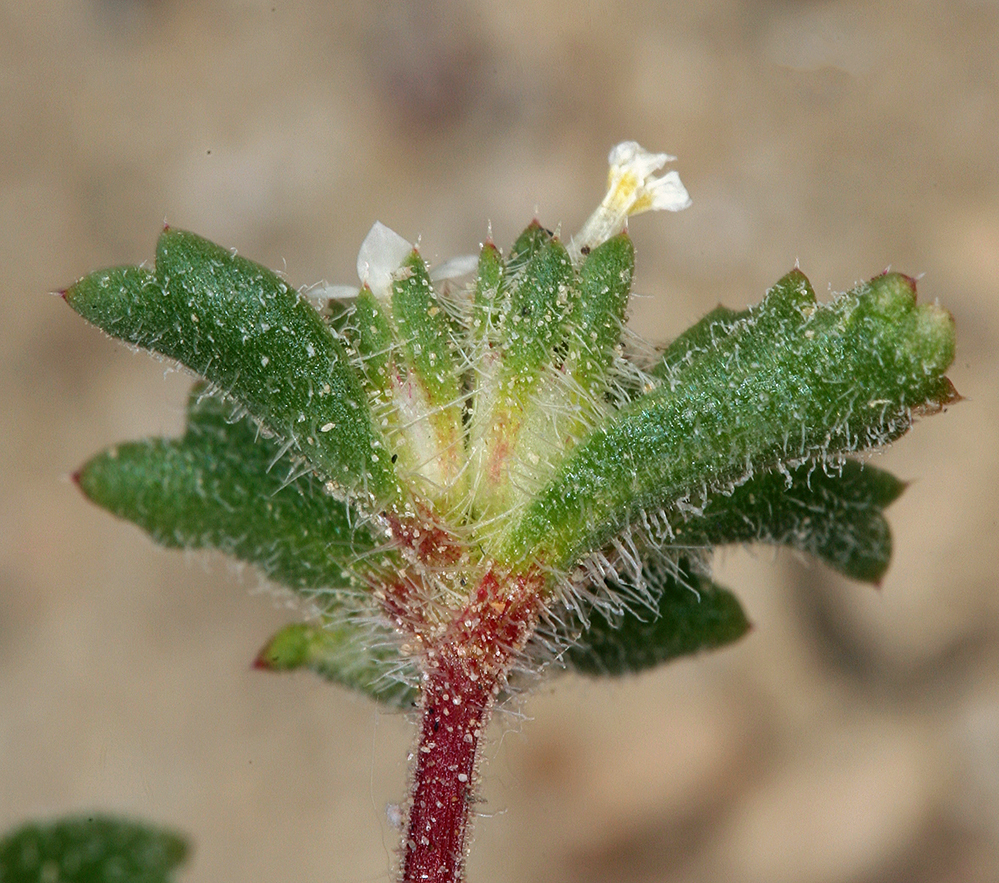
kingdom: Plantae
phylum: Tracheophyta
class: Magnoliopsida
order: Ericales
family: Polemoniaceae
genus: Ipomopsis
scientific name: Ipomopsis polycladon
